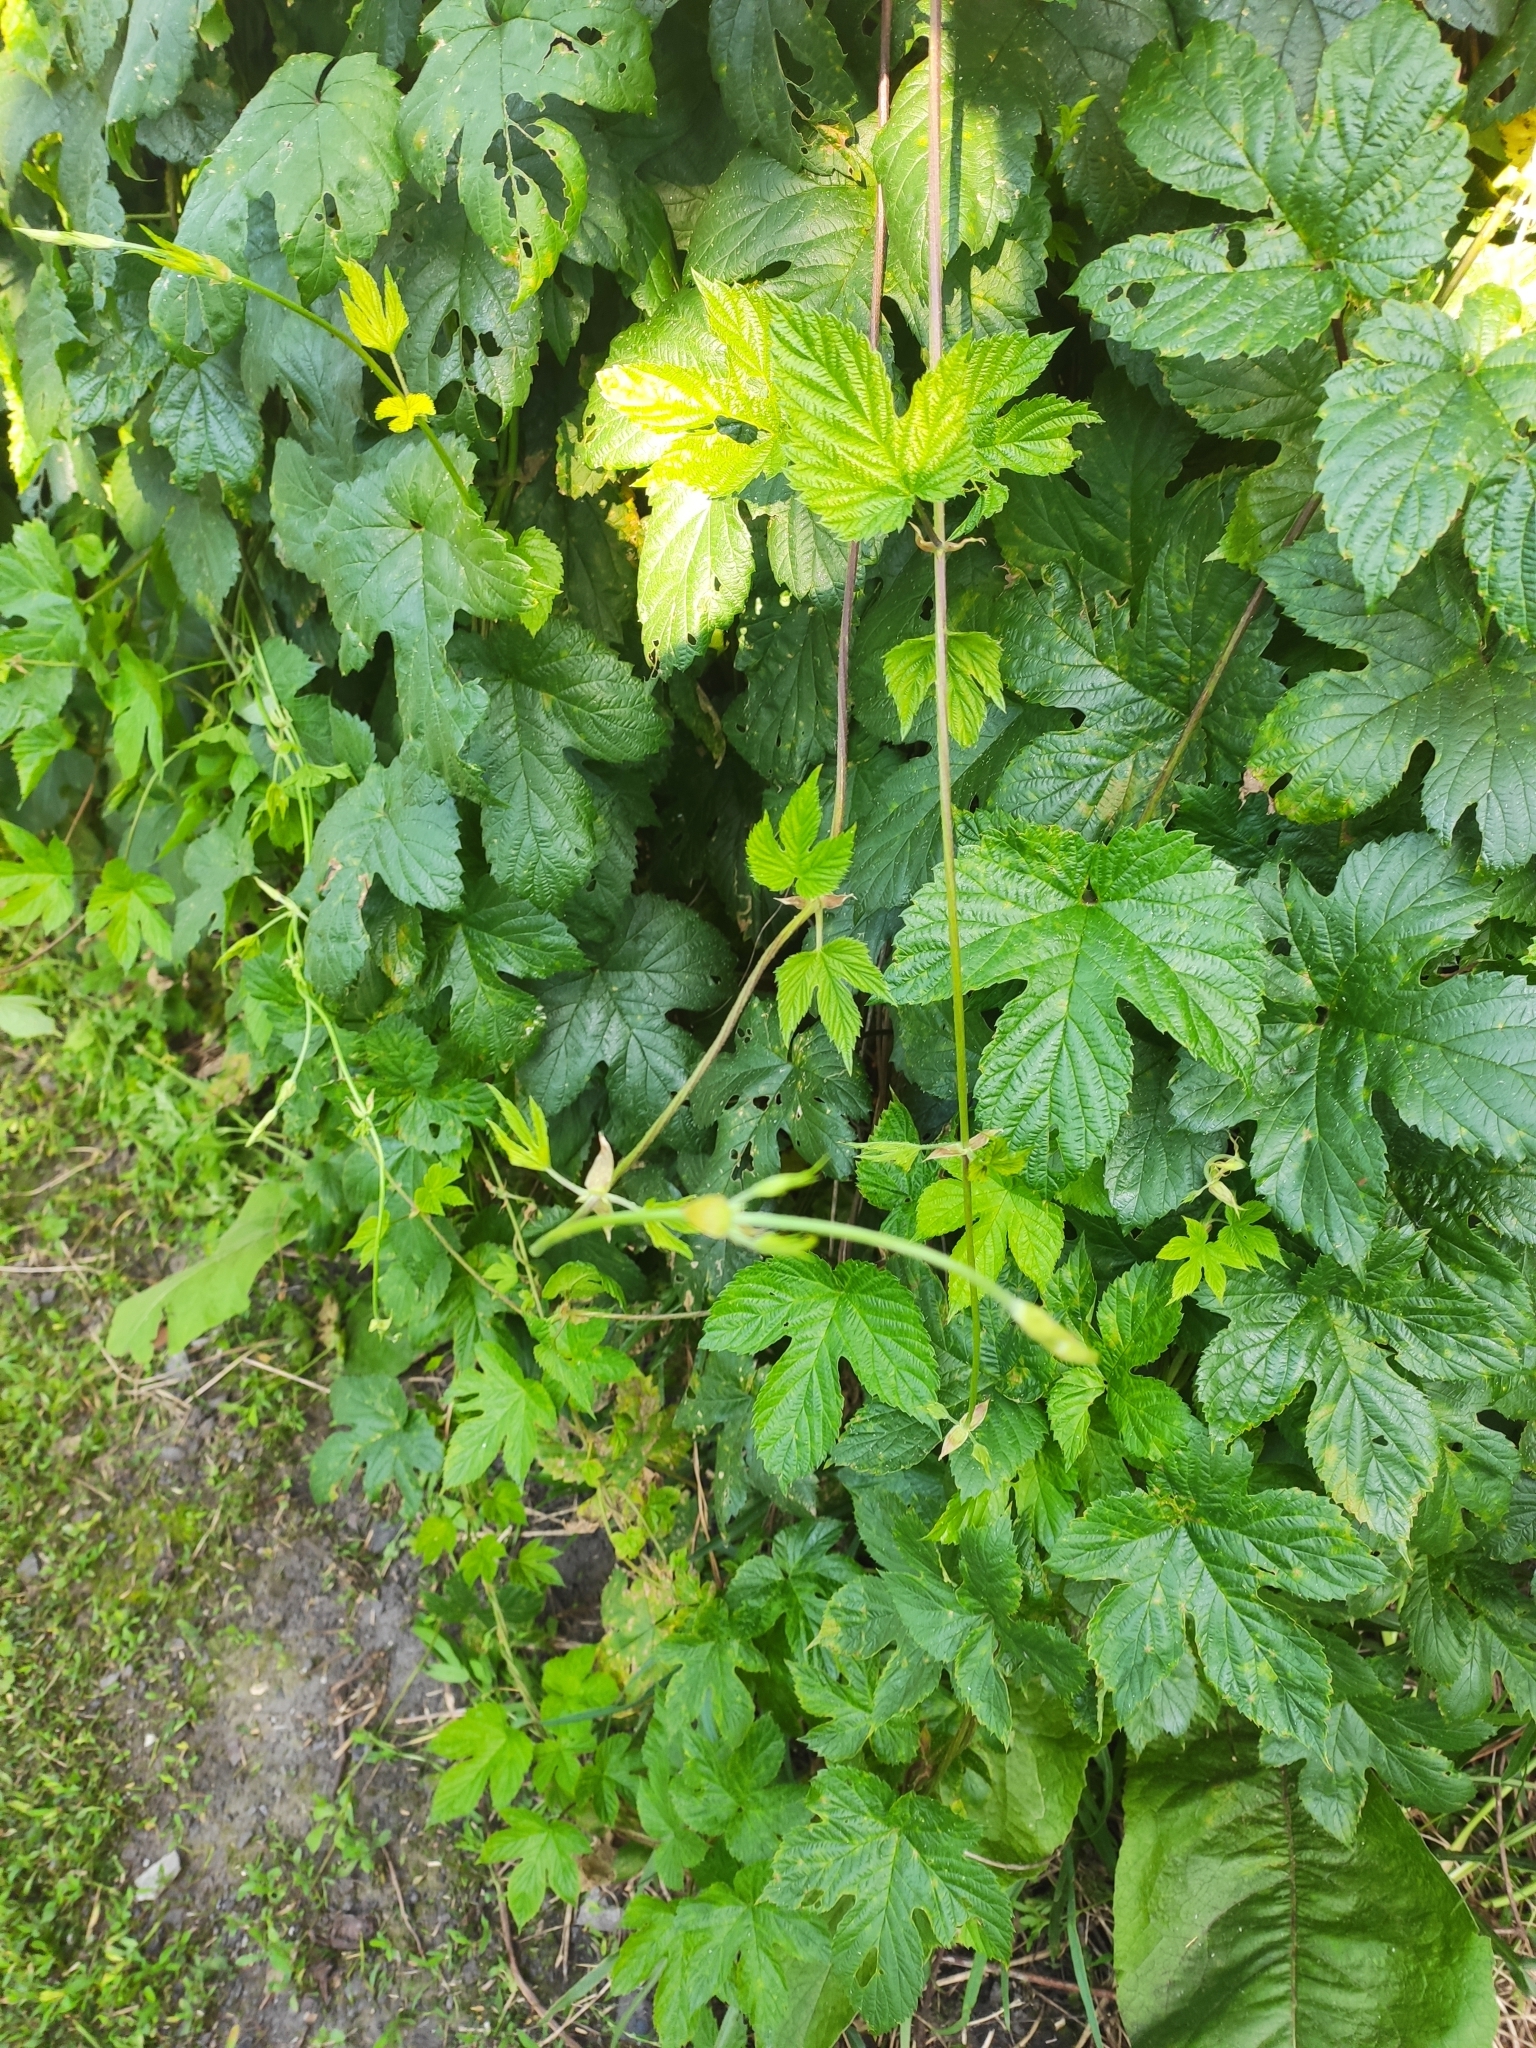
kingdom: Plantae
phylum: Tracheophyta
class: Magnoliopsida
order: Rosales
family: Cannabaceae
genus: Humulus
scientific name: Humulus lupulus
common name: Hop
